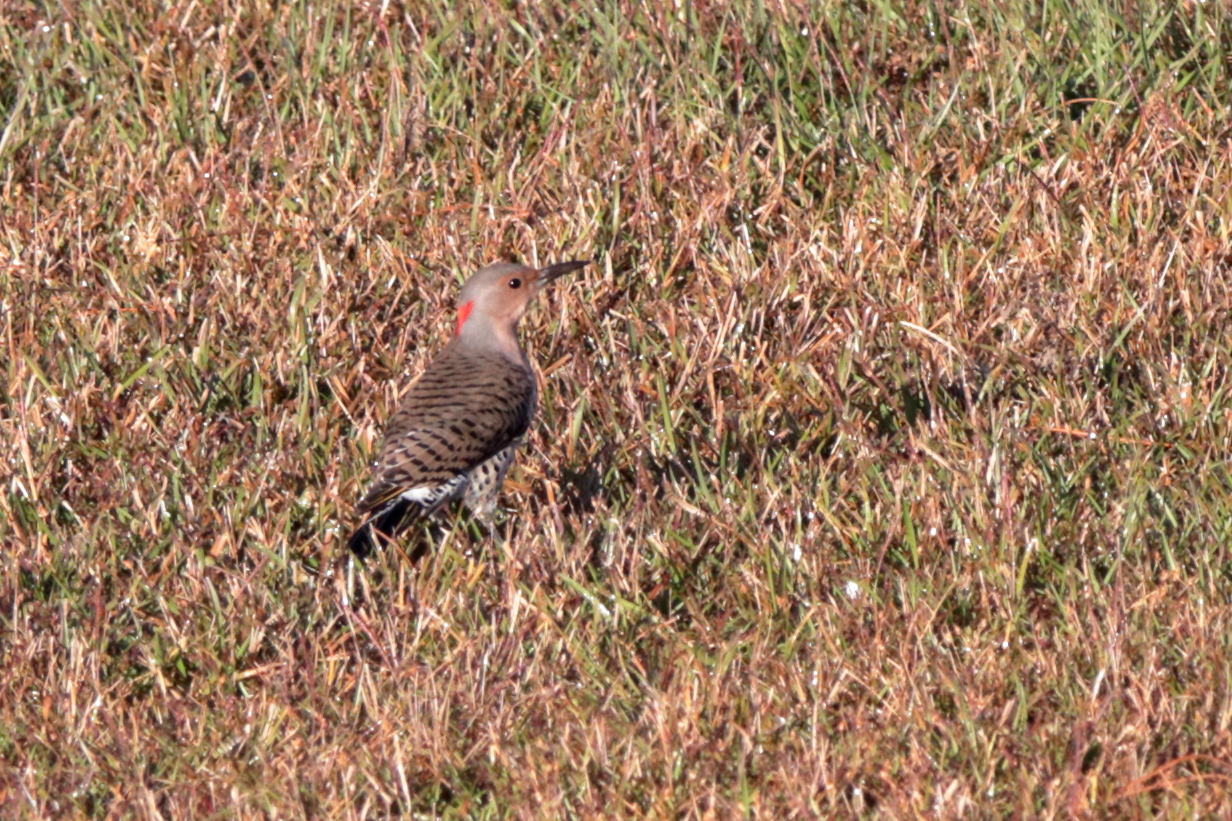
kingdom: Animalia
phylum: Chordata
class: Aves
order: Piciformes
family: Picidae
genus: Colaptes
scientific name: Colaptes auratus
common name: Northern flicker
